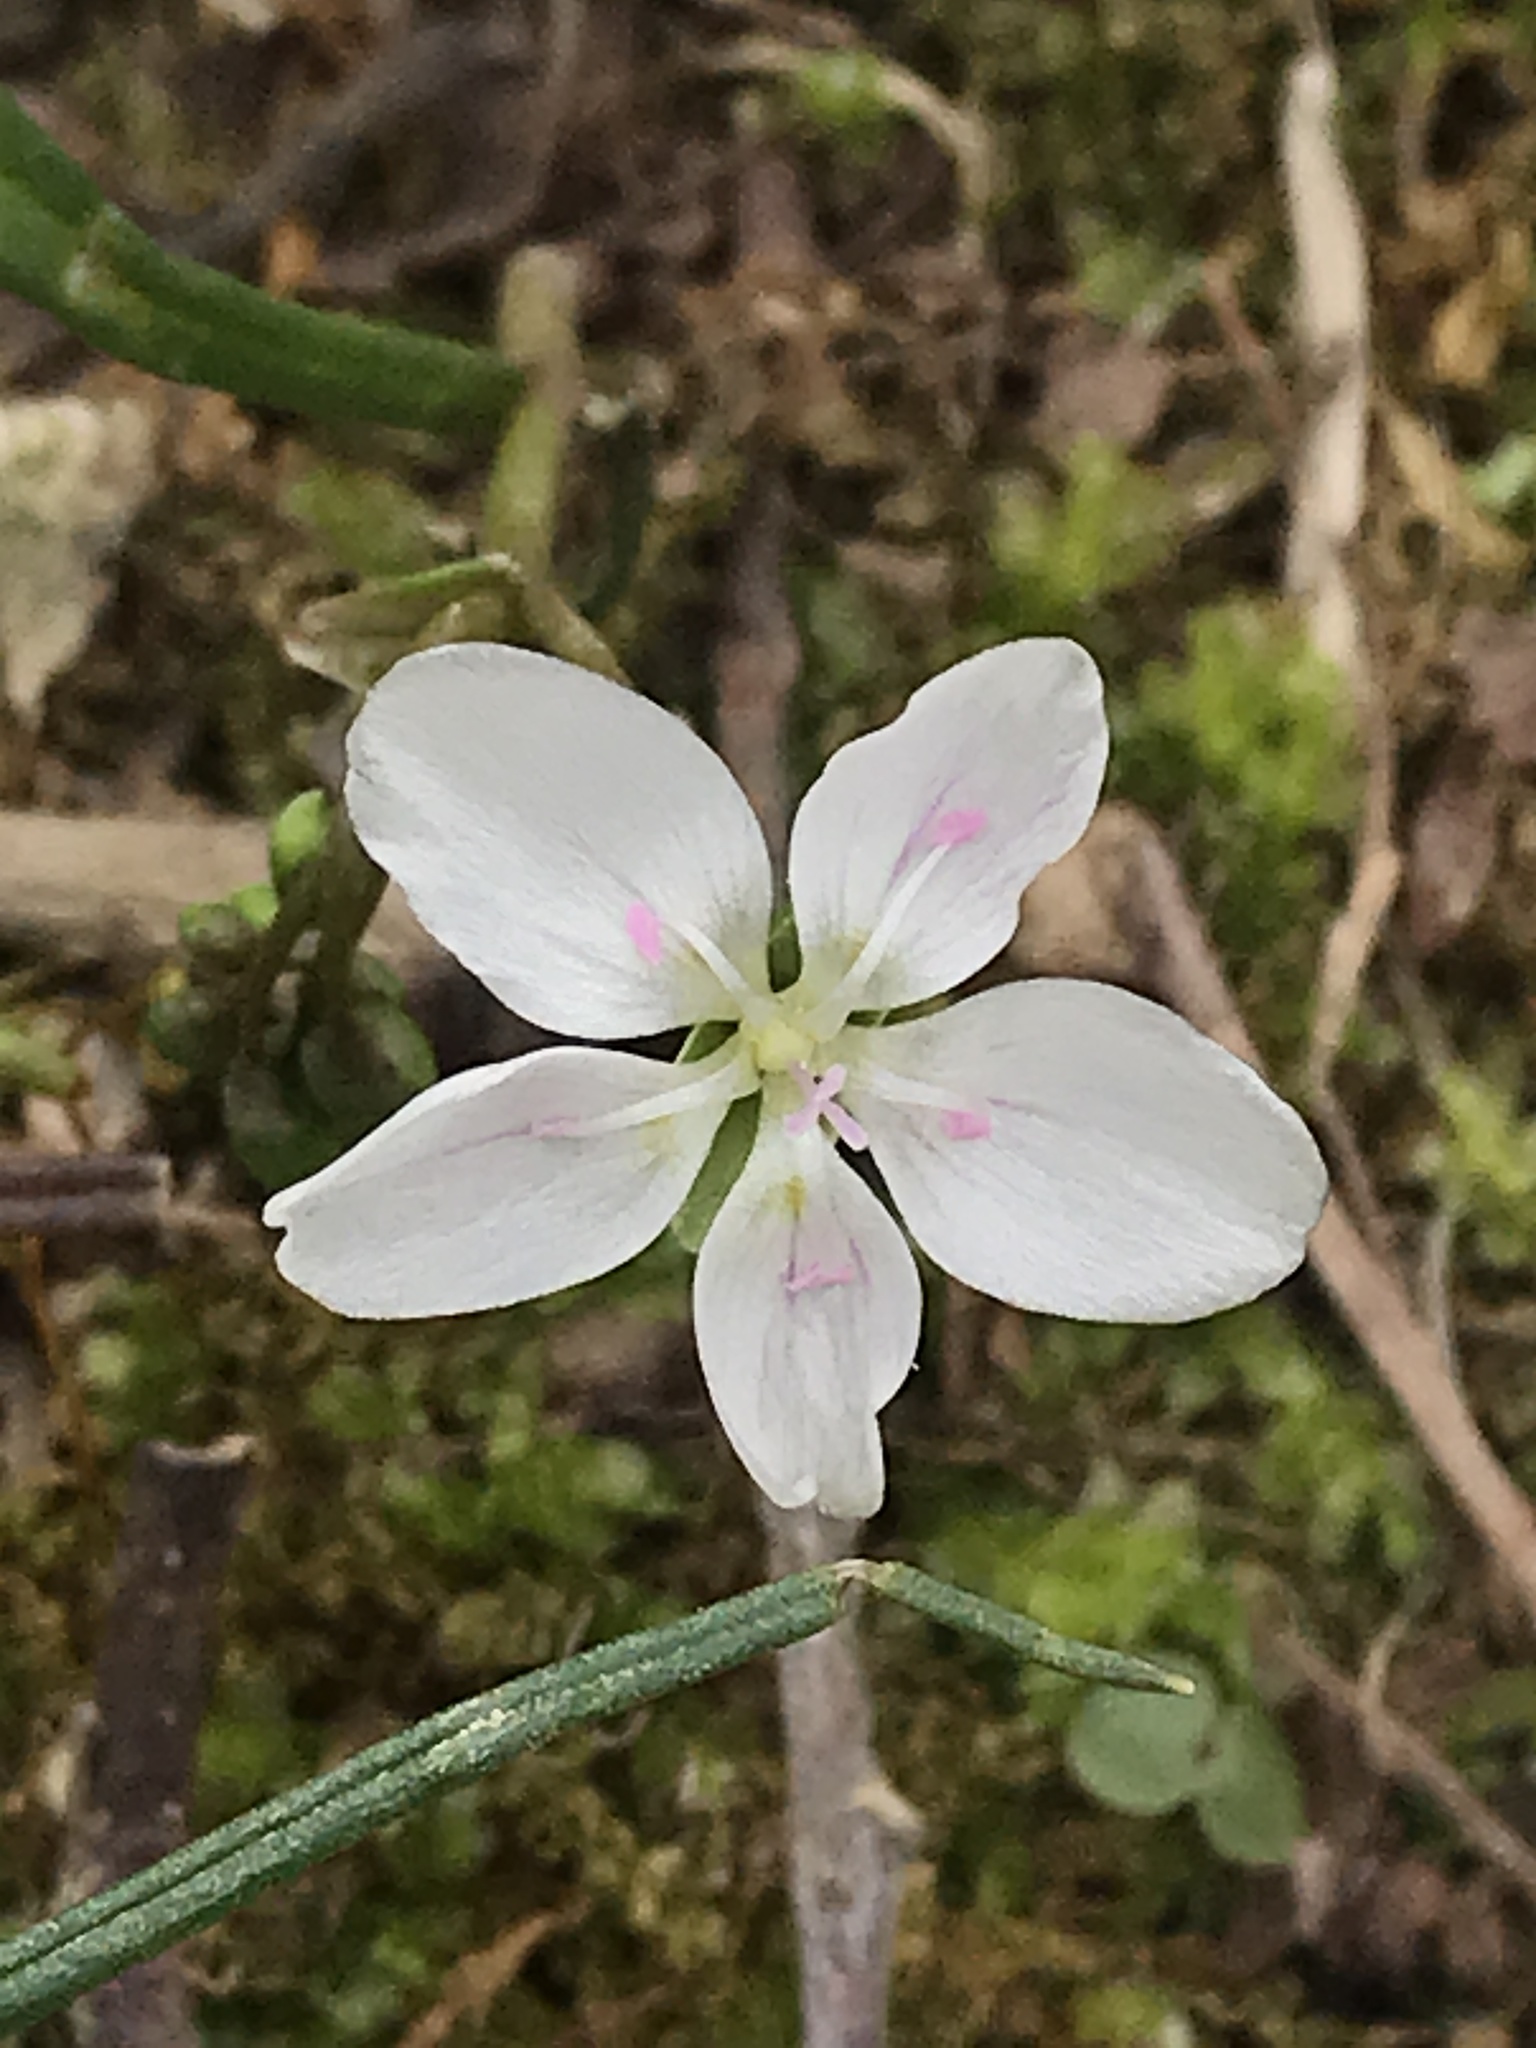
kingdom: Plantae
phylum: Tracheophyta
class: Magnoliopsida
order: Caryophyllales
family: Montiaceae
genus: Claytonia
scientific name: Claytonia virginica
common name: Virginia springbeauty
